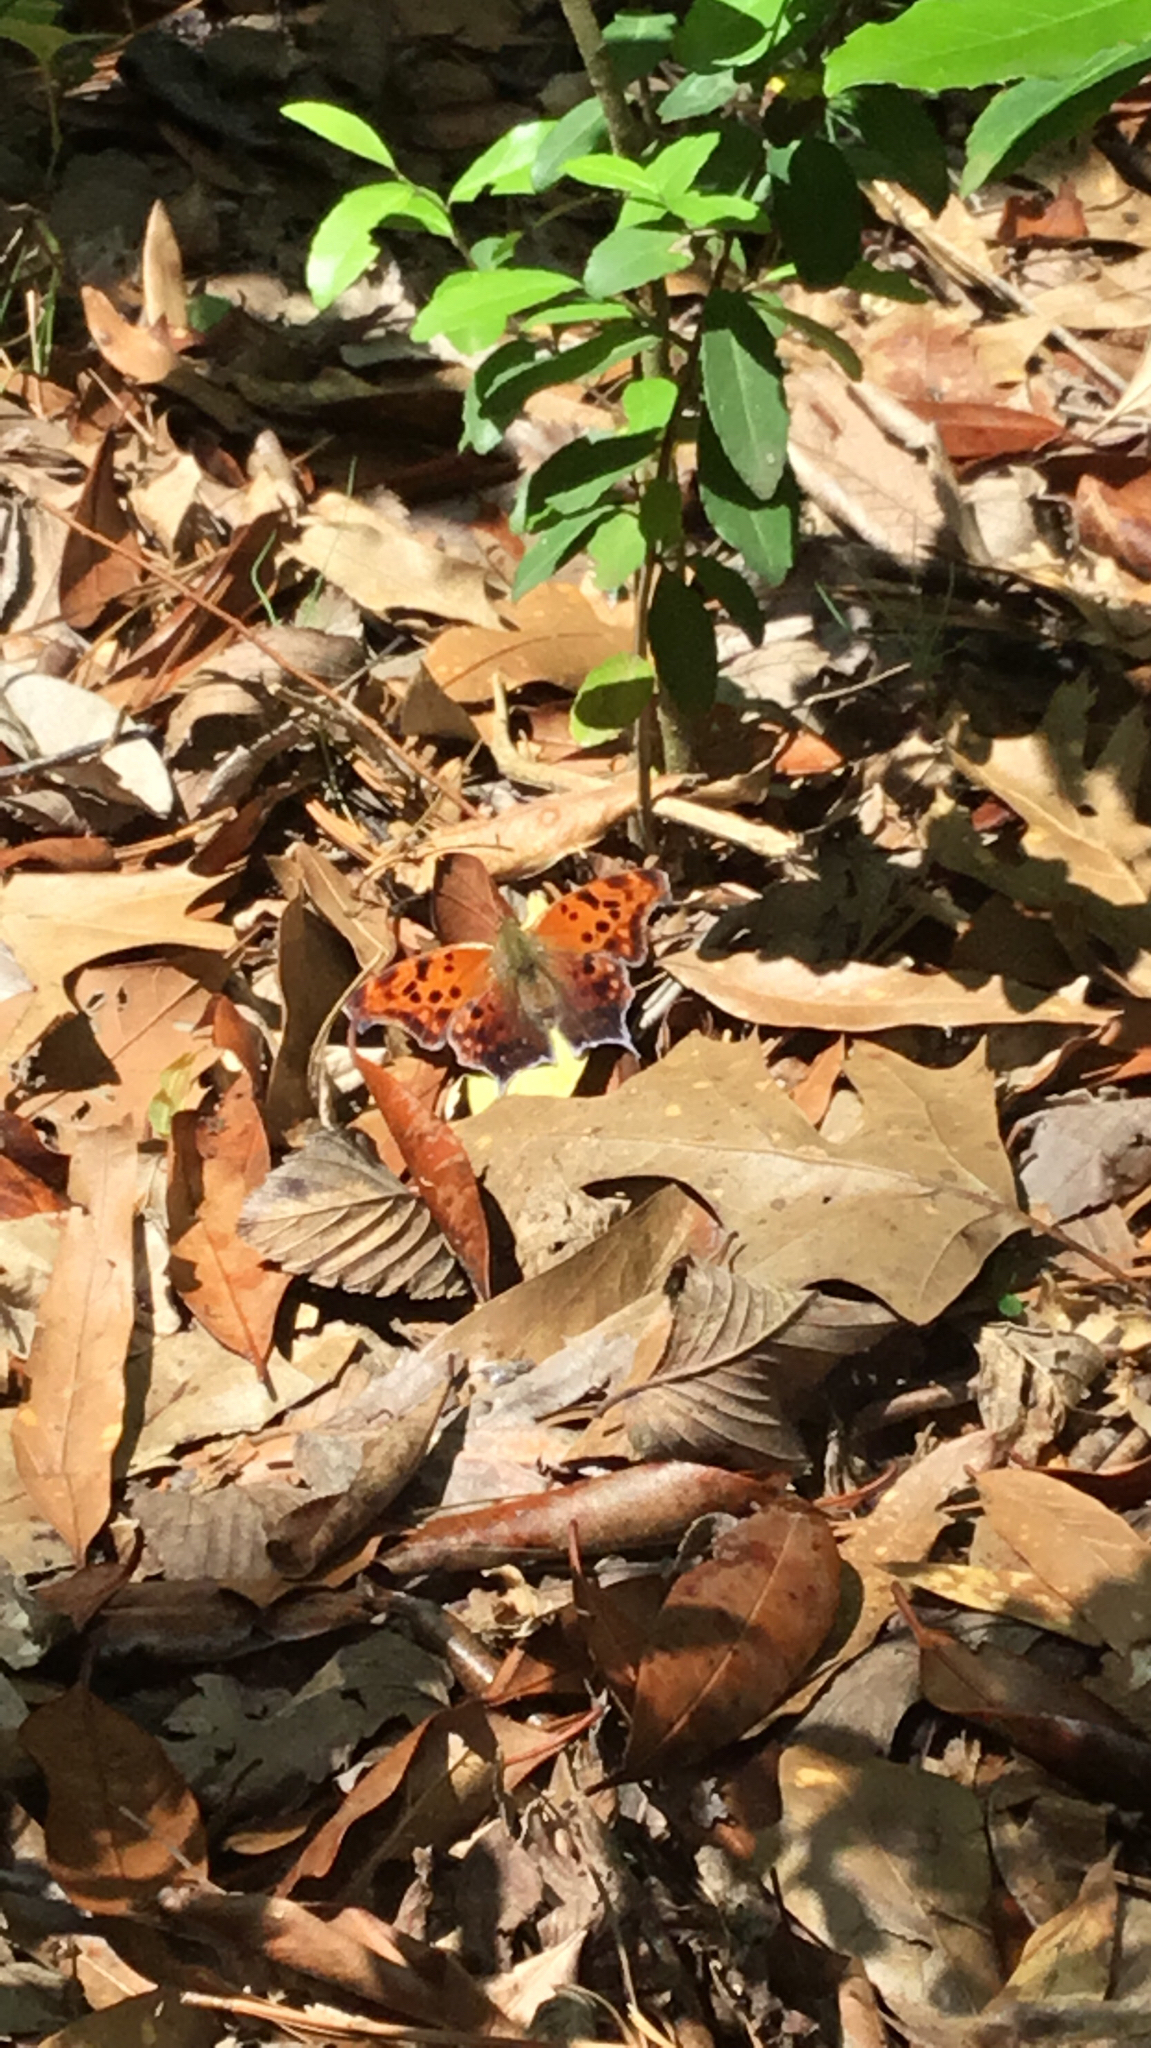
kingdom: Animalia
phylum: Arthropoda
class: Insecta
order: Lepidoptera
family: Nymphalidae
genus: Polygonia
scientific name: Polygonia interrogationis
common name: Question mark
